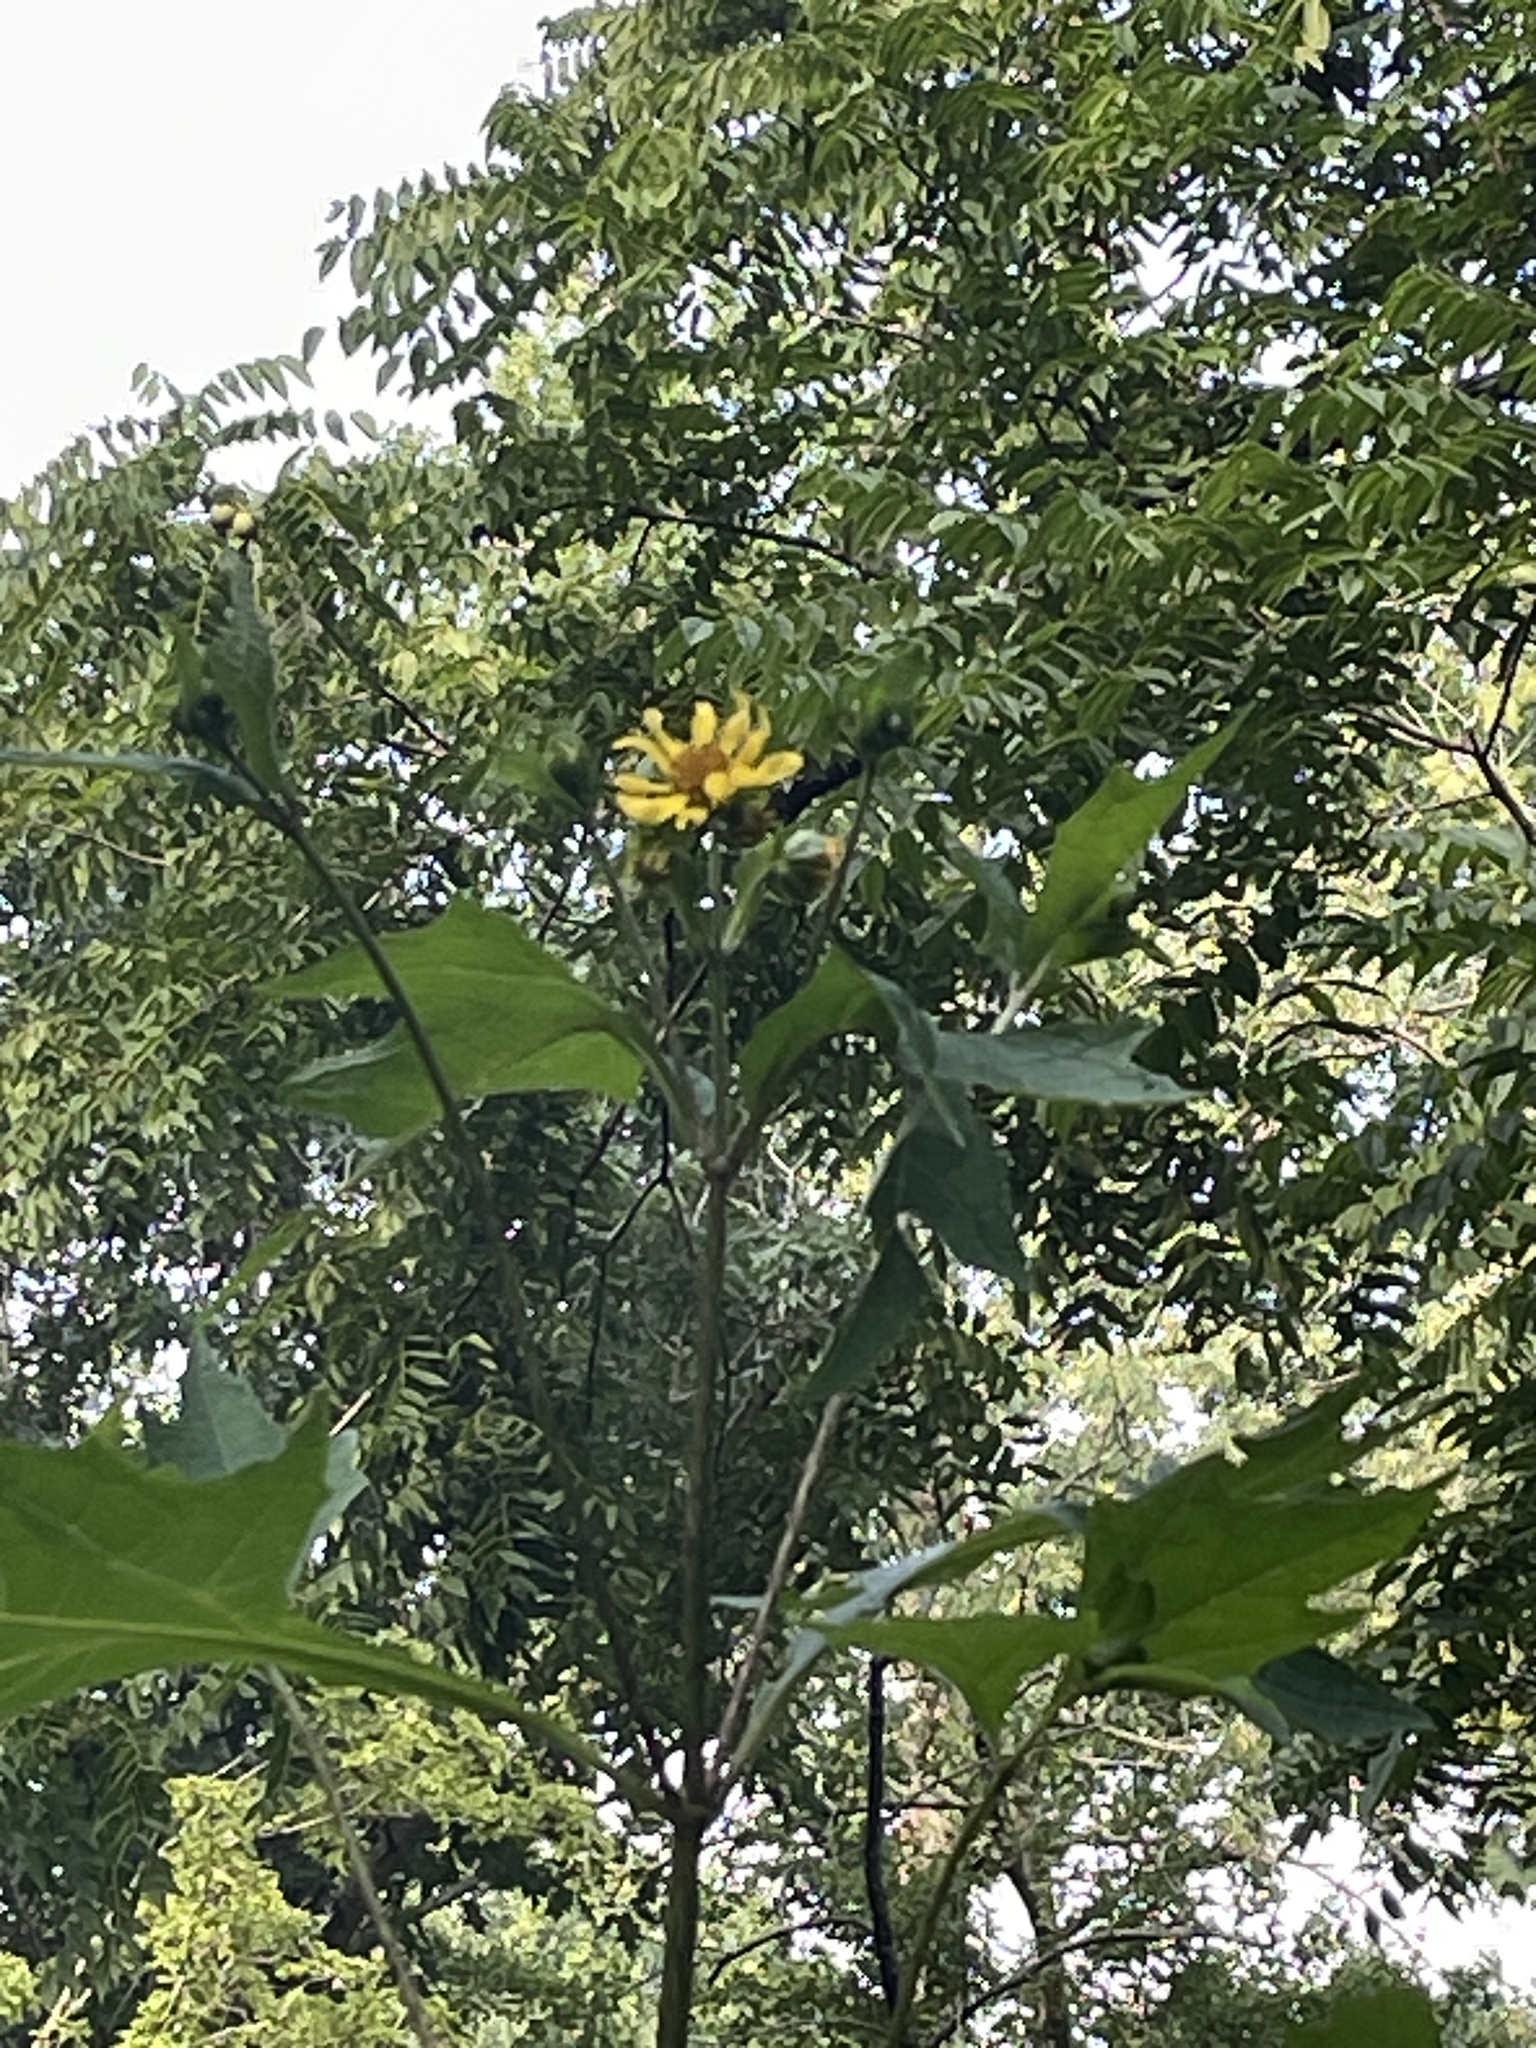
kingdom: Plantae
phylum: Tracheophyta
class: Magnoliopsida
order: Asterales
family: Asteraceae
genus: Smallanthus
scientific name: Smallanthus uvedalia
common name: Bear's-foot
